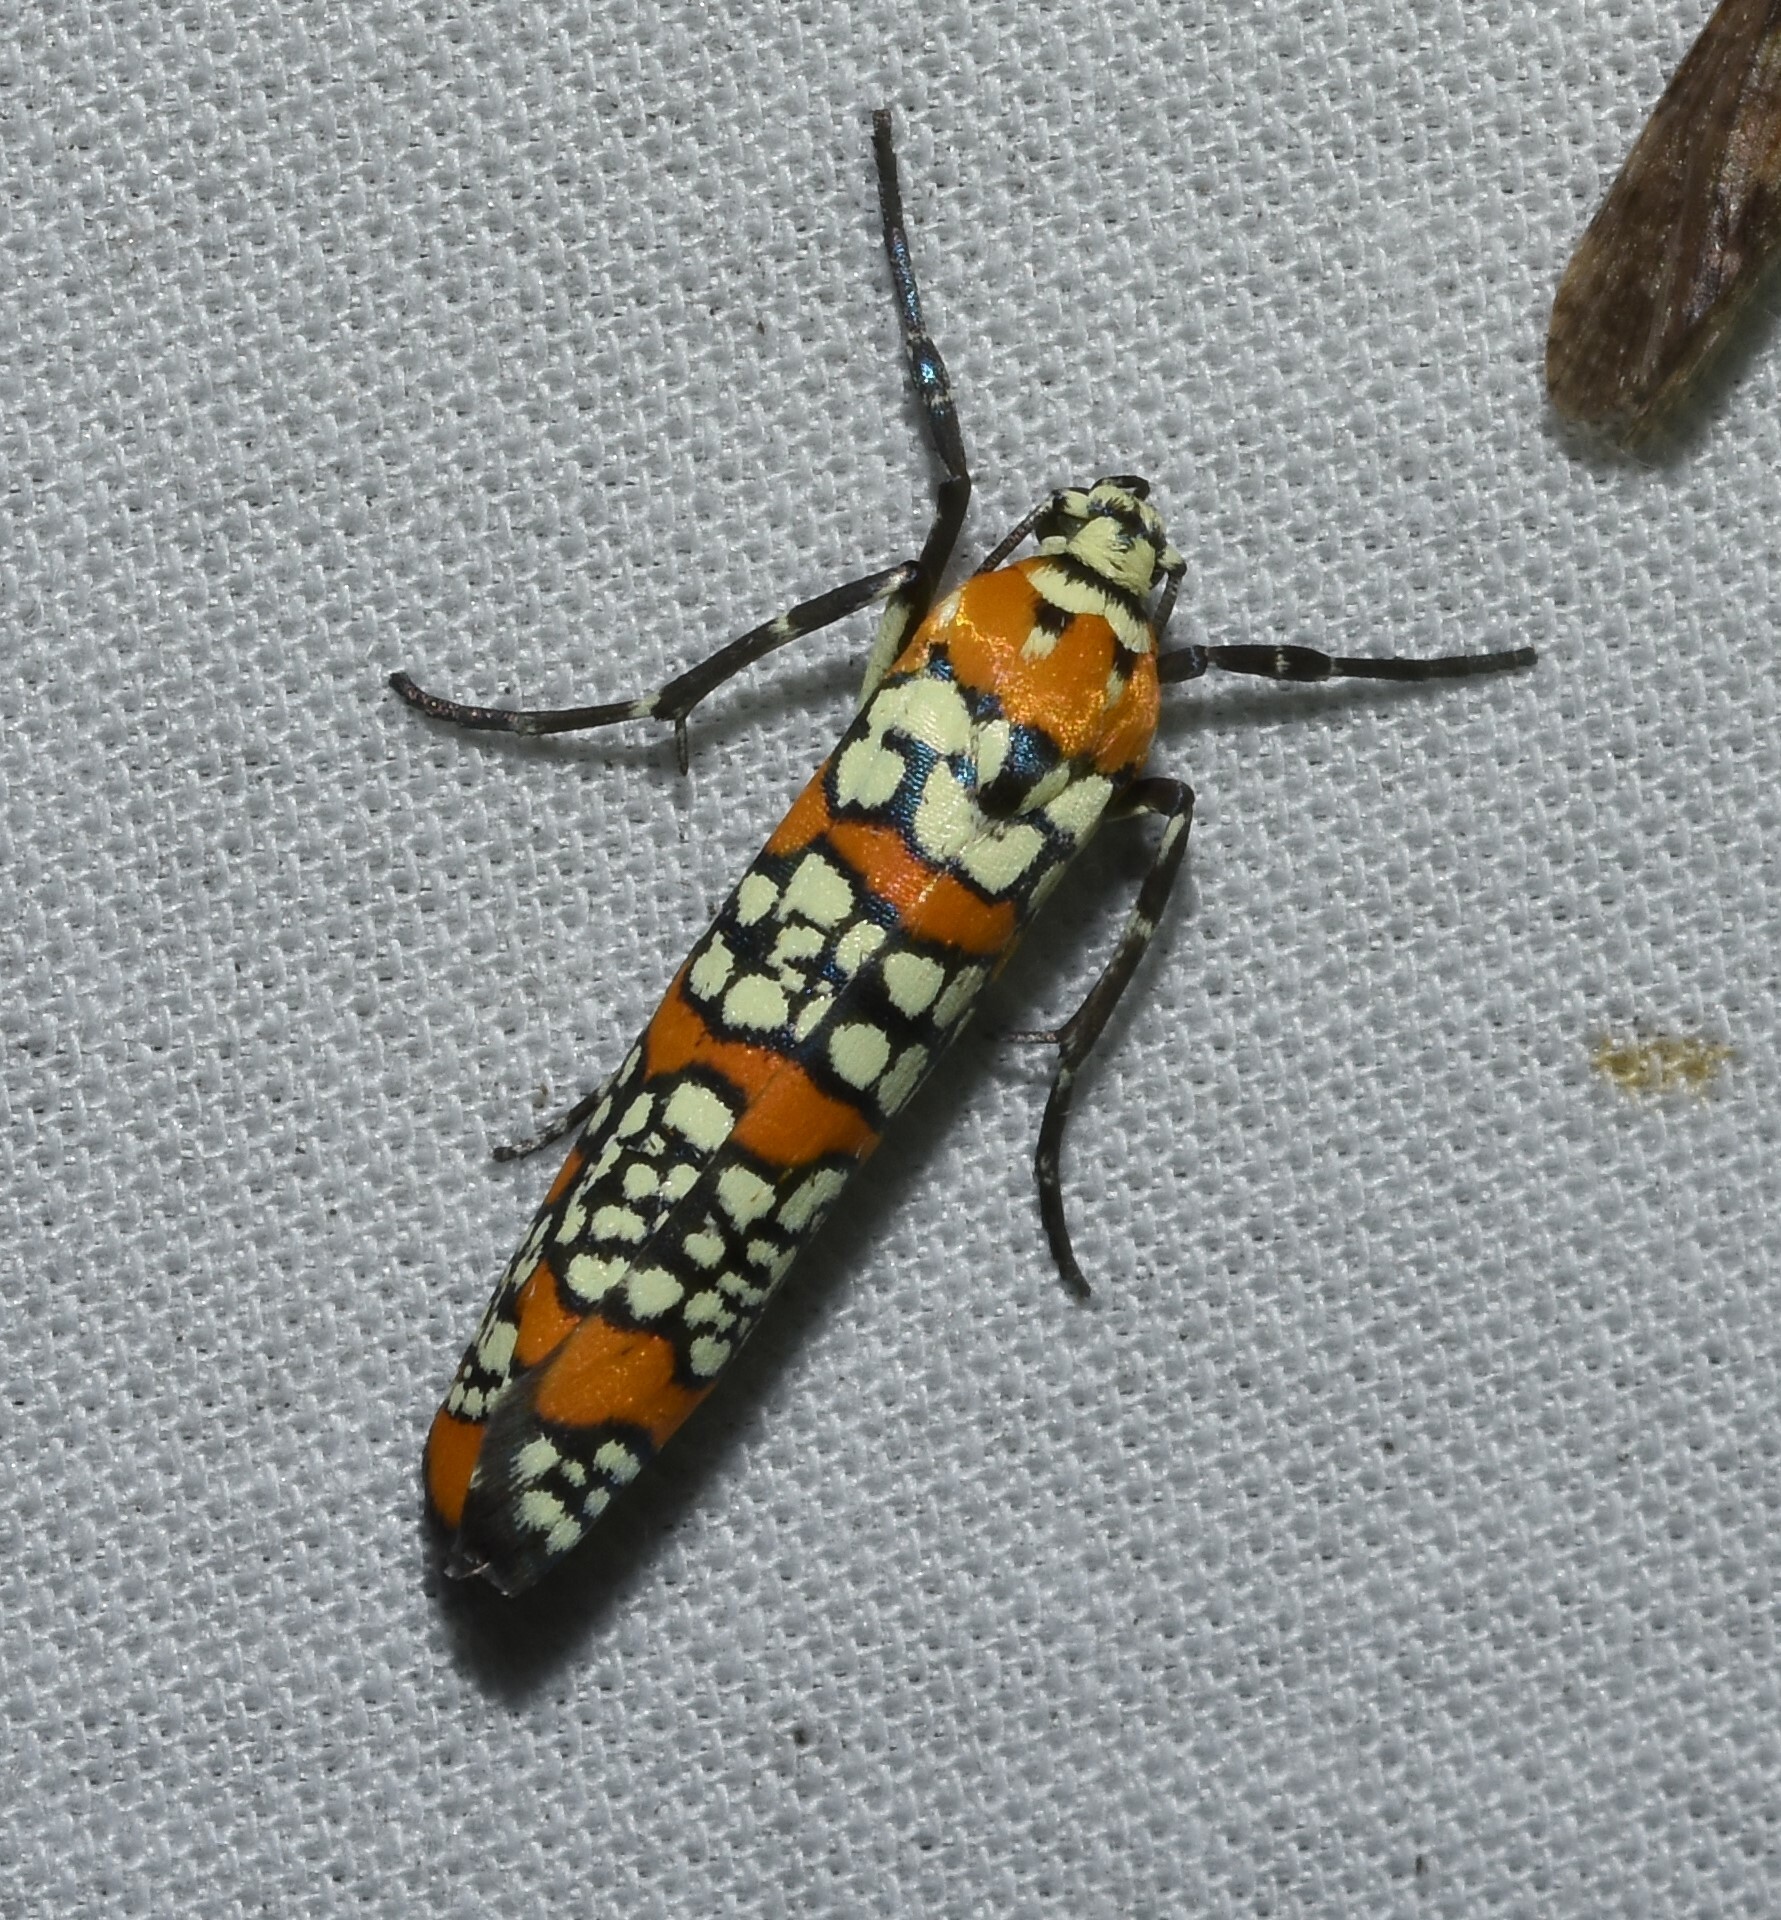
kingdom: Animalia
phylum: Arthropoda
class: Insecta
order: Lepidoptera
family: Attevidae
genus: Atteva
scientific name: Atteva punctella
